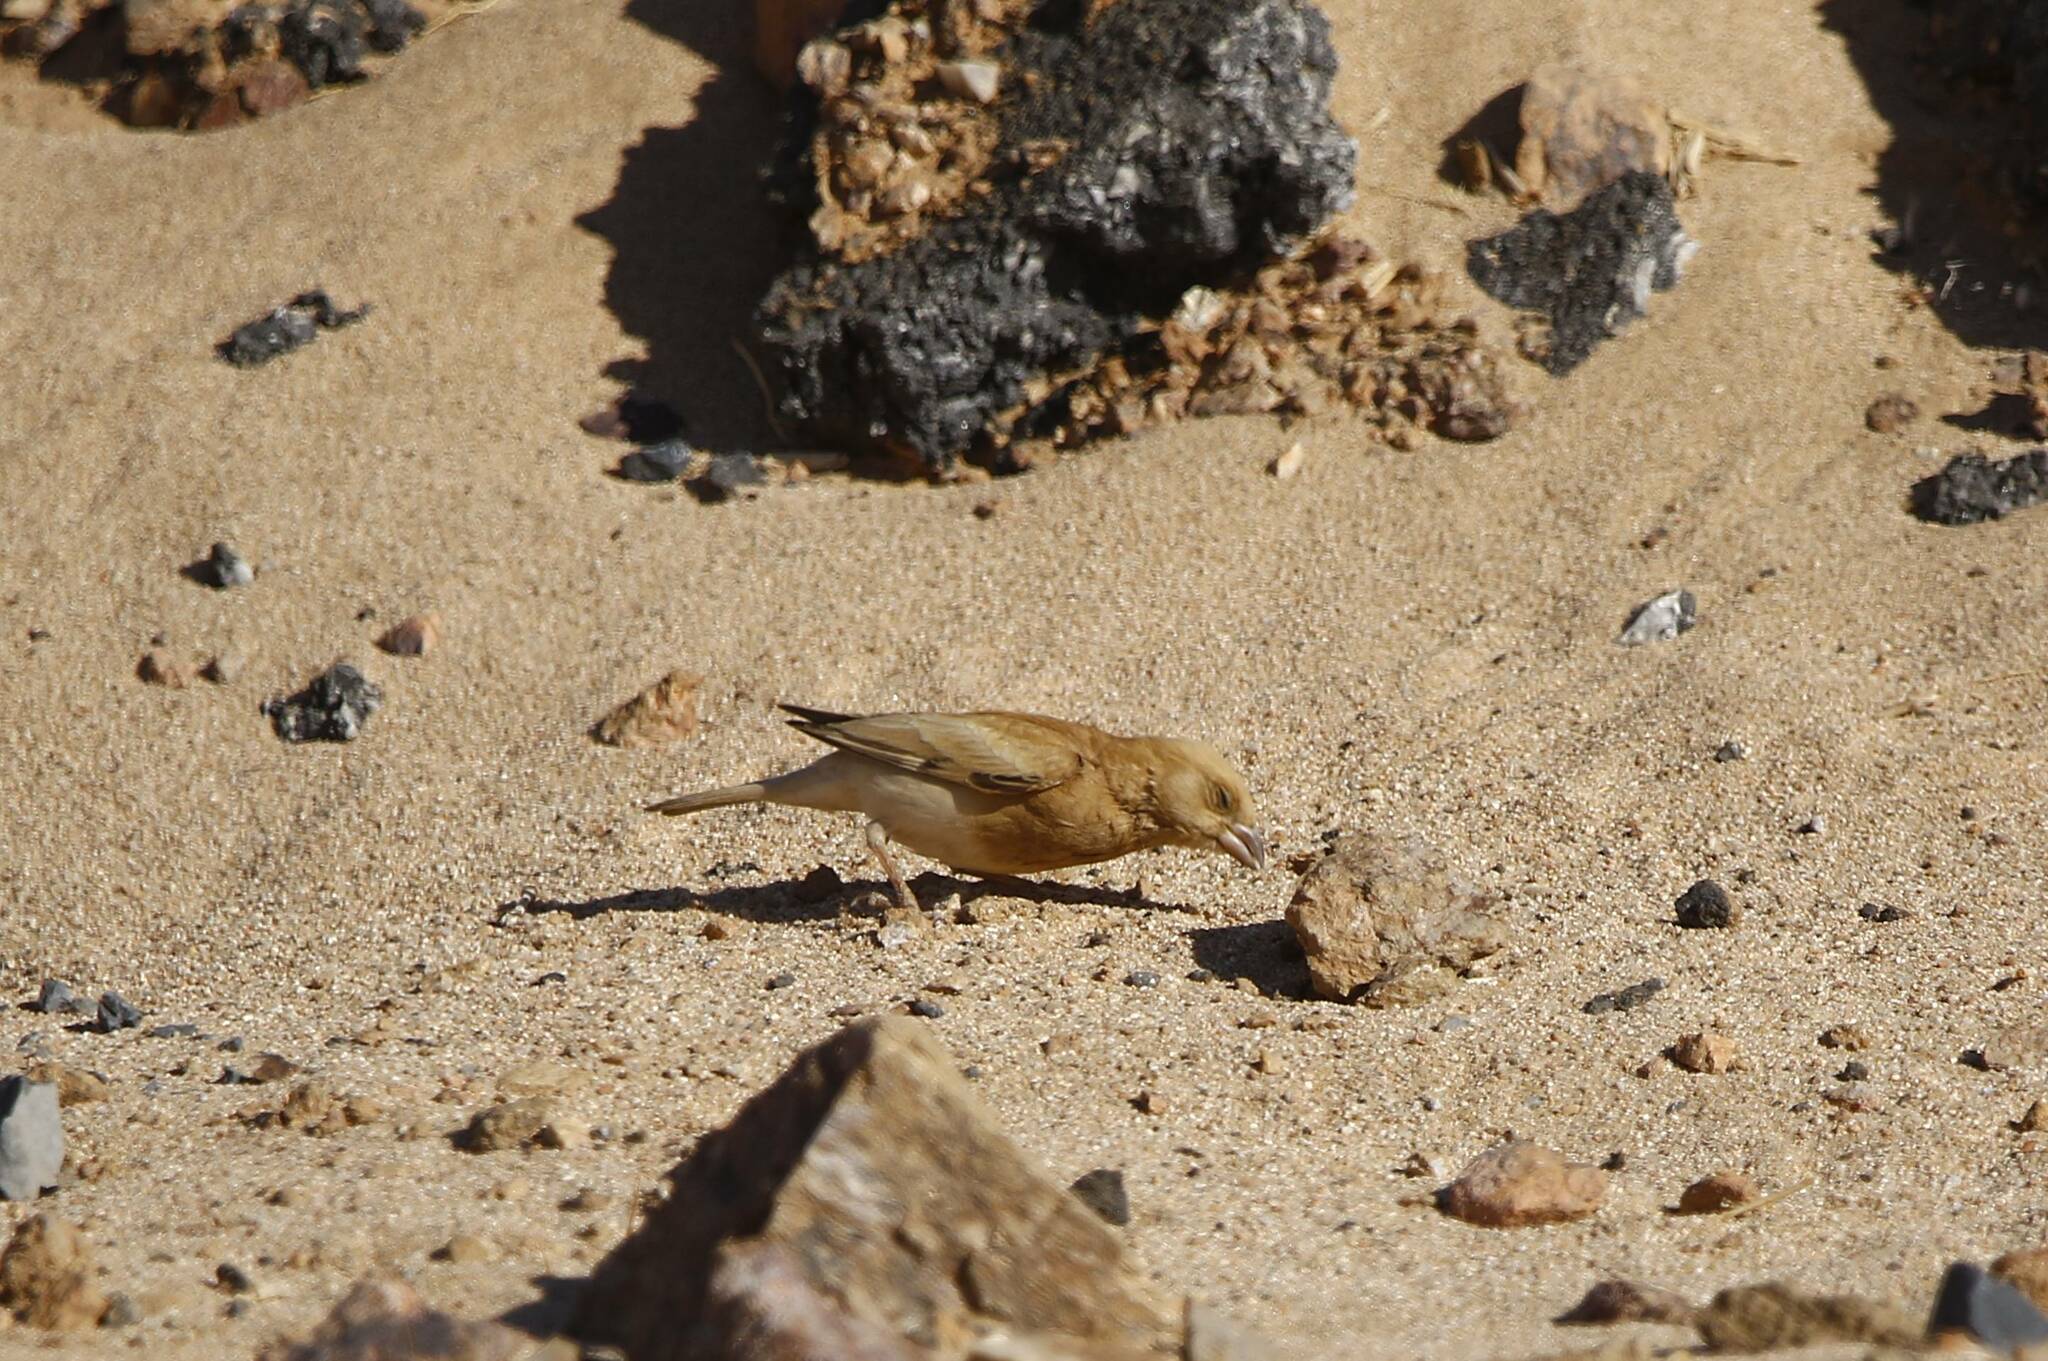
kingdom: Animalia
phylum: Chordata
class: Aves
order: Passeriformes
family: Passeridae
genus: Passer
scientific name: Passer simplex
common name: Desert sparrow
